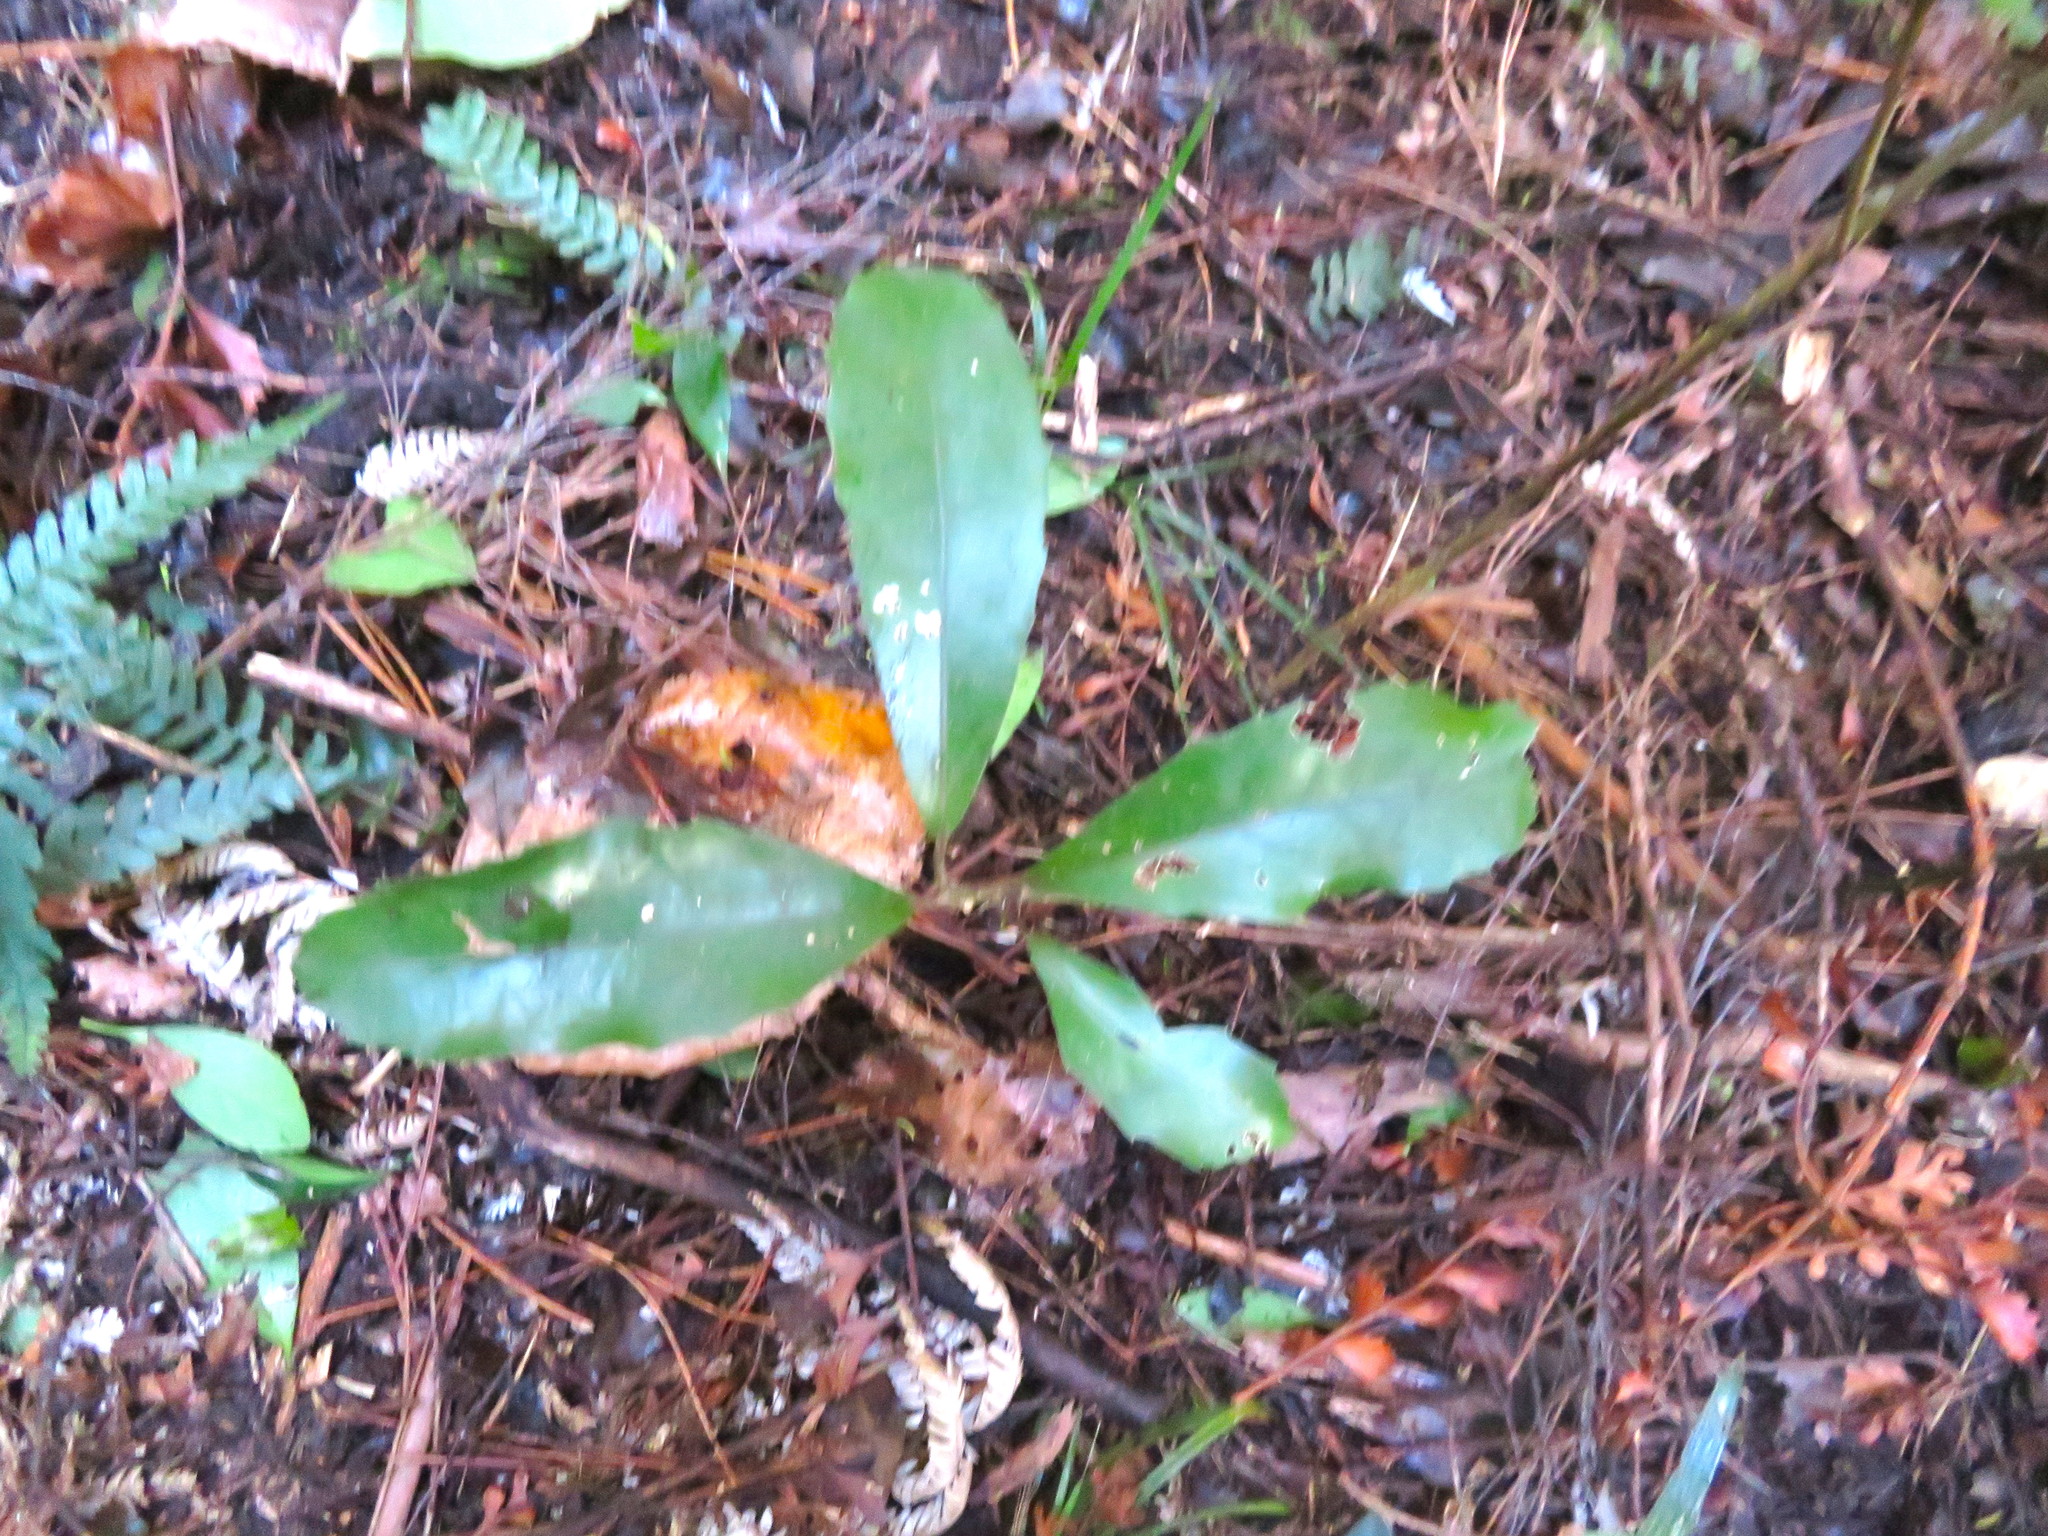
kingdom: Plantae
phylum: Tracheophyta
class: Magnoliopsida
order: Laurales
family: Monimiaceae
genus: Hedycarya
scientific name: Hedycarya arborea
